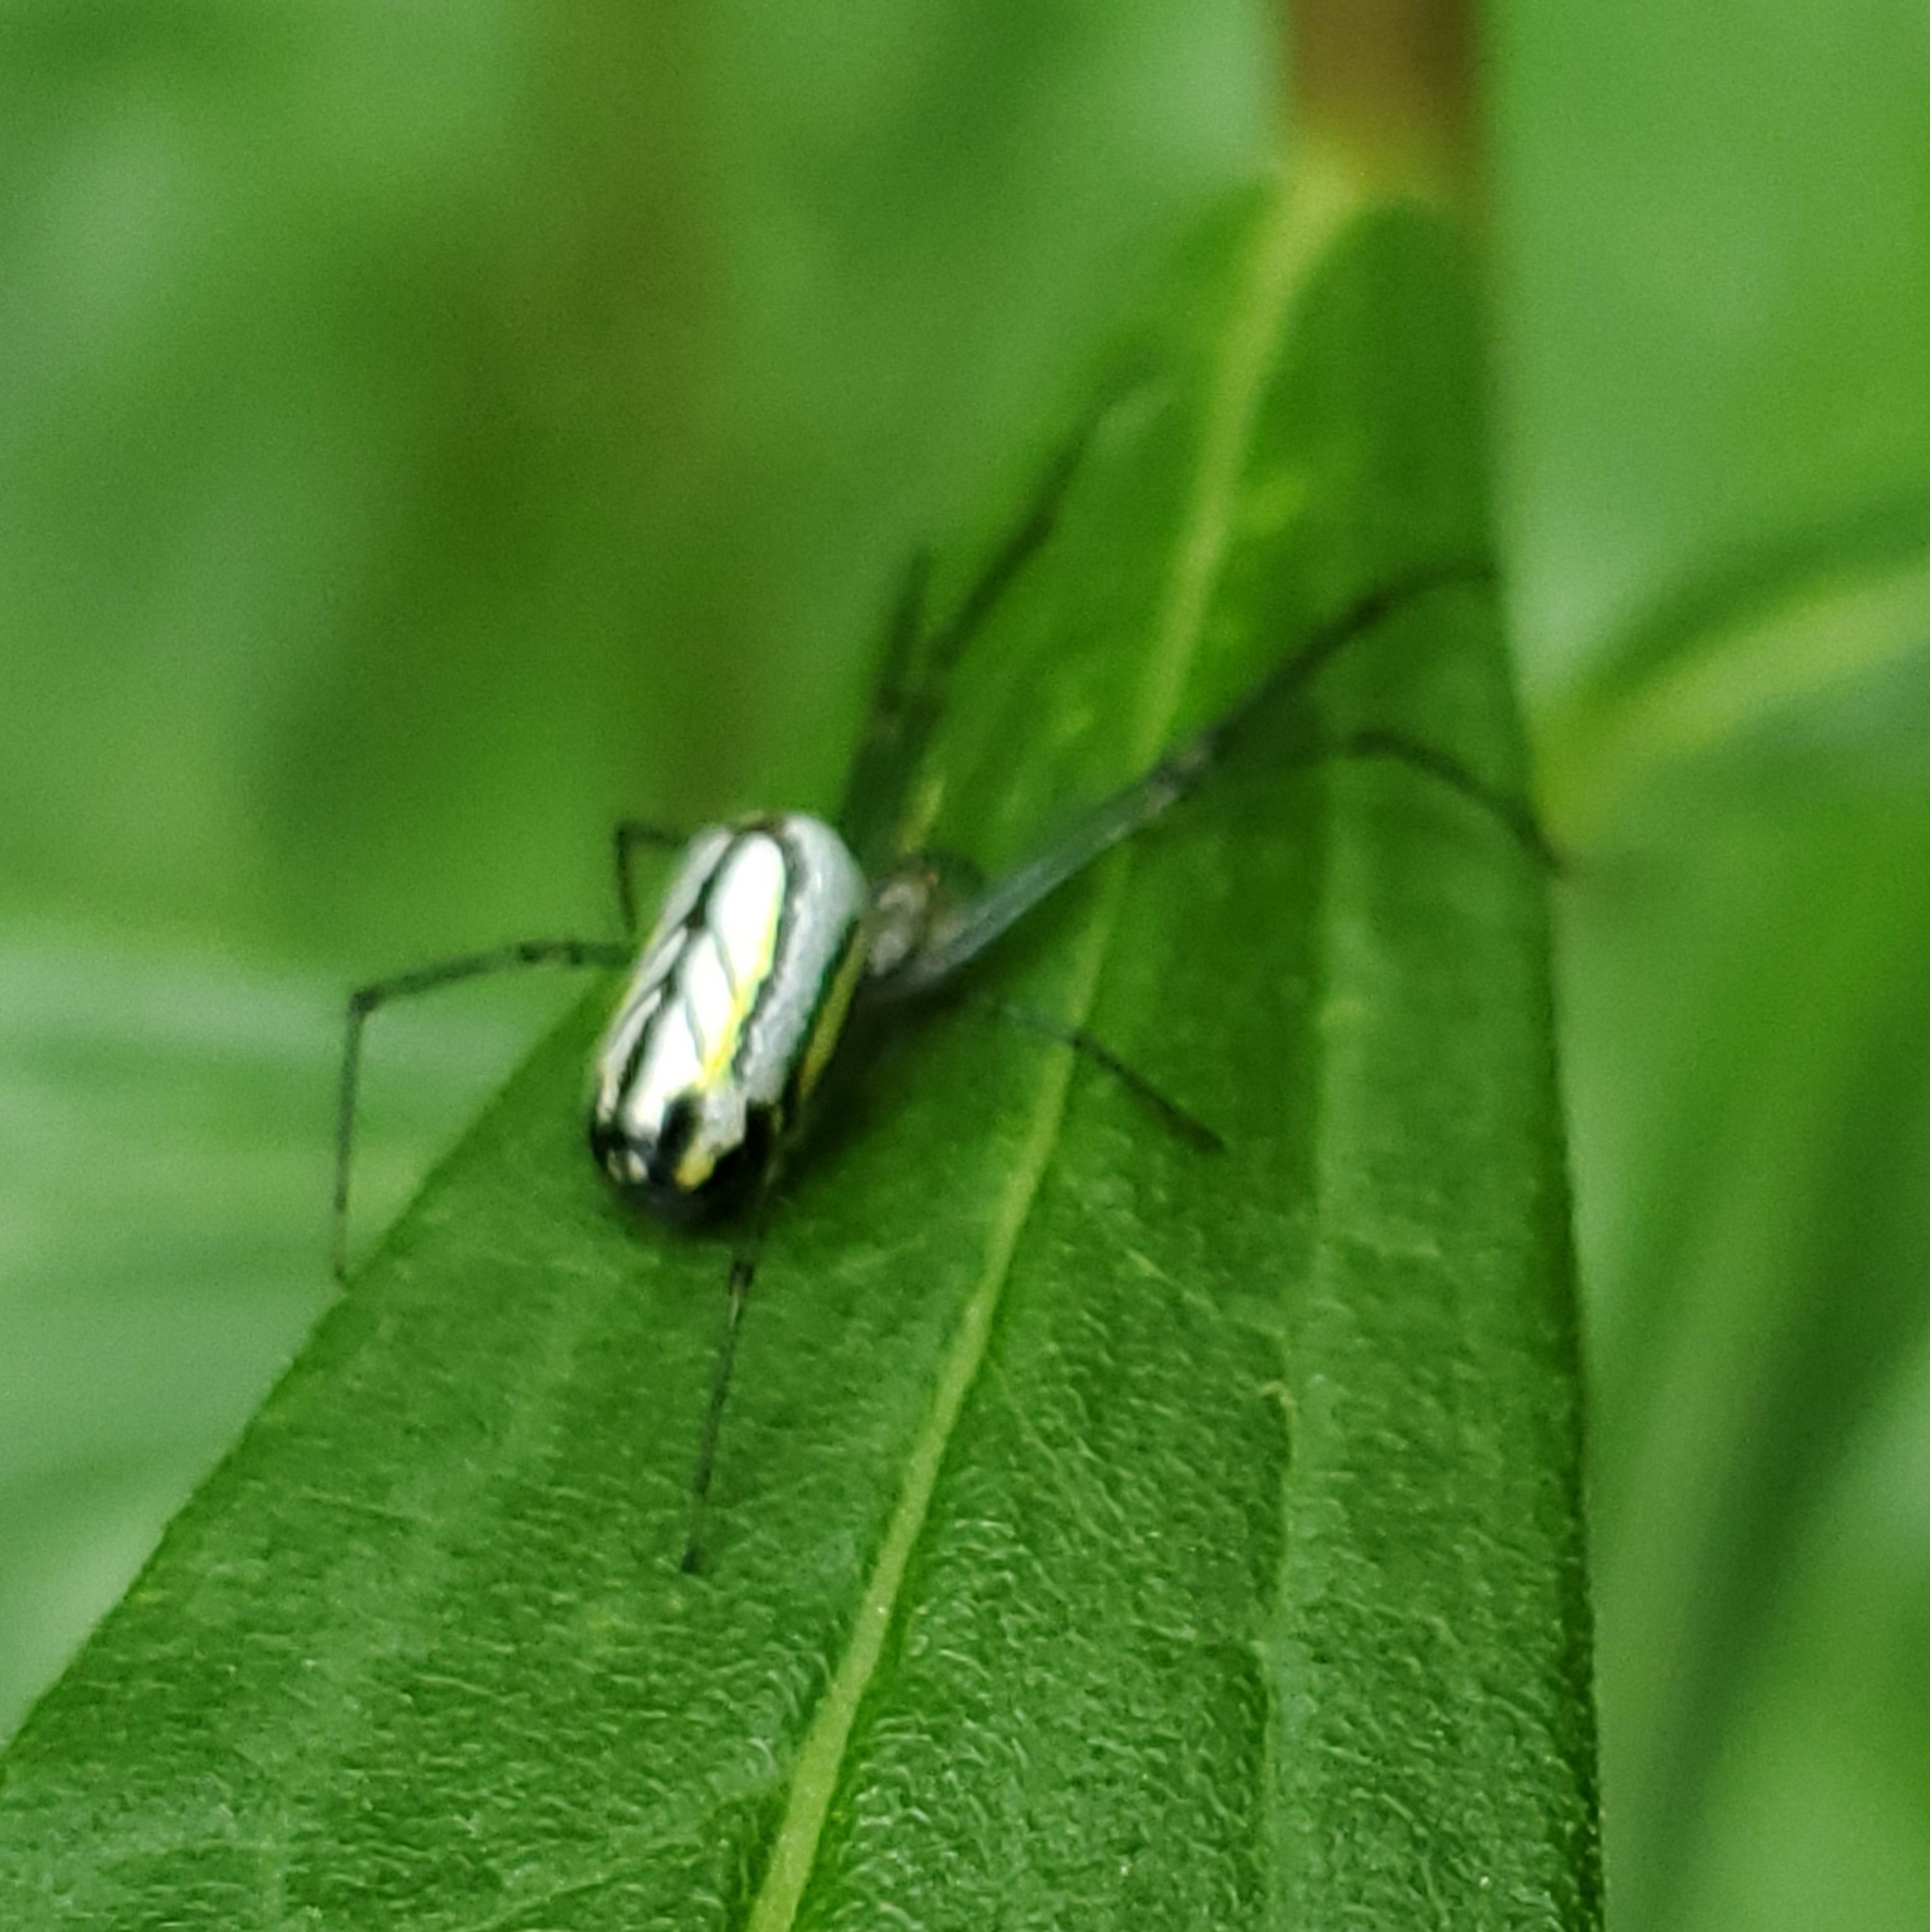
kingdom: Animalia
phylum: Arthropoda
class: Arachnida
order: Araneae
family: Tetragnathidae
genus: Leucauge
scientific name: Leucauge venusta
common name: Longjawed orb weavers
